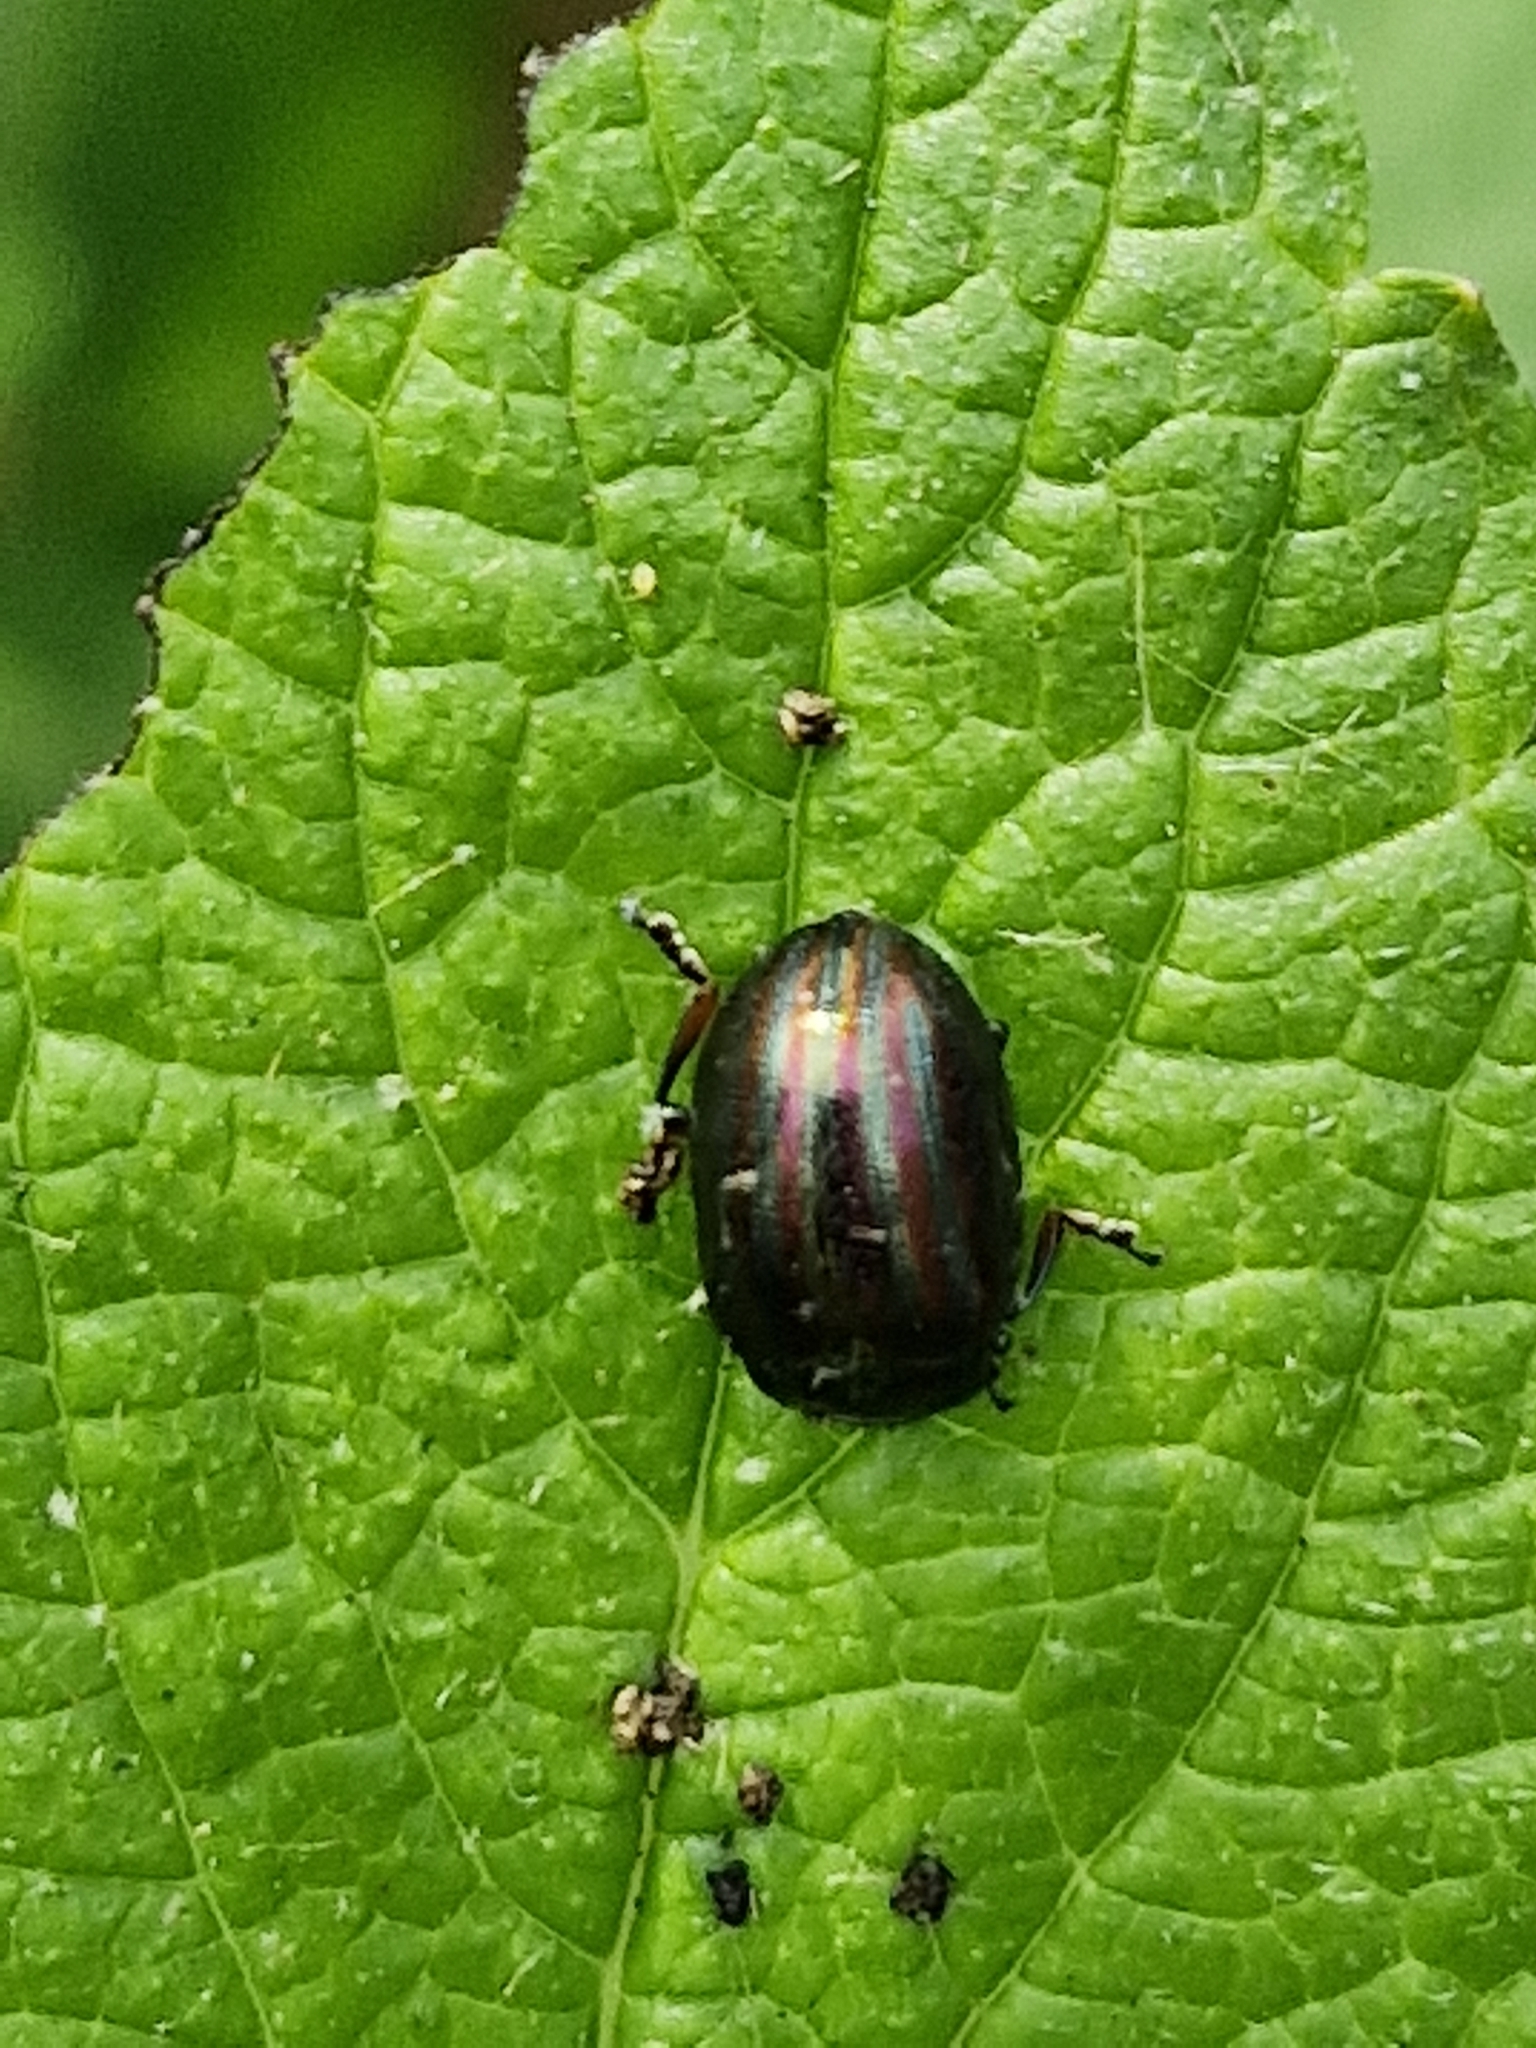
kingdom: Animalia
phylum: Arthropoda
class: Insecta
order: Coleoptera
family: Chrysomelidae
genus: Chrysolina
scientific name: Chrysolina americana
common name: Rosemary beetle
